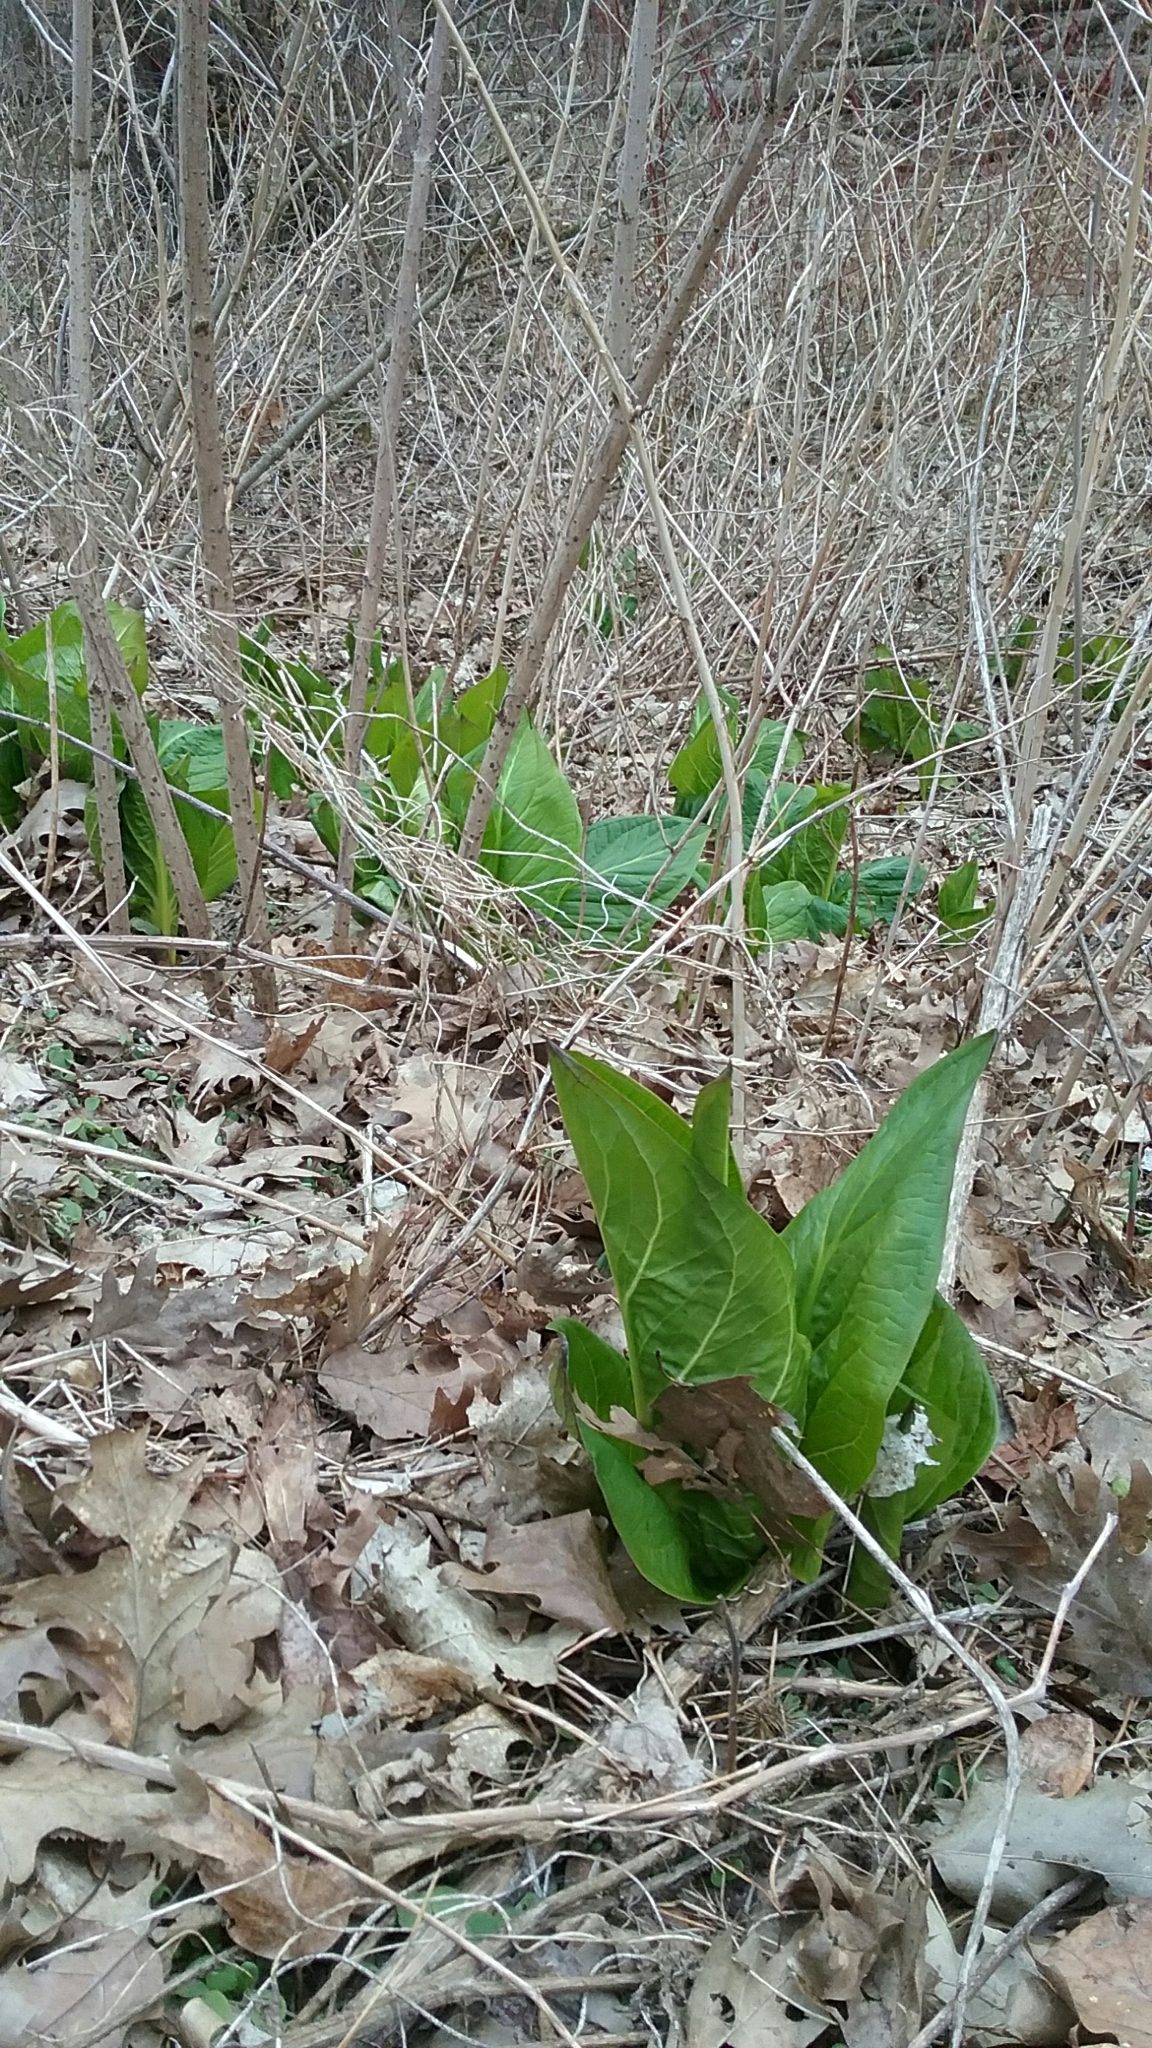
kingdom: Plantae
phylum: Tracheophyta
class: Liliopsida
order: Alismatales
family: Araceae
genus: Symplocarpus
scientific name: Symplocarpus foetidus
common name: Eastern skunk cabbage
